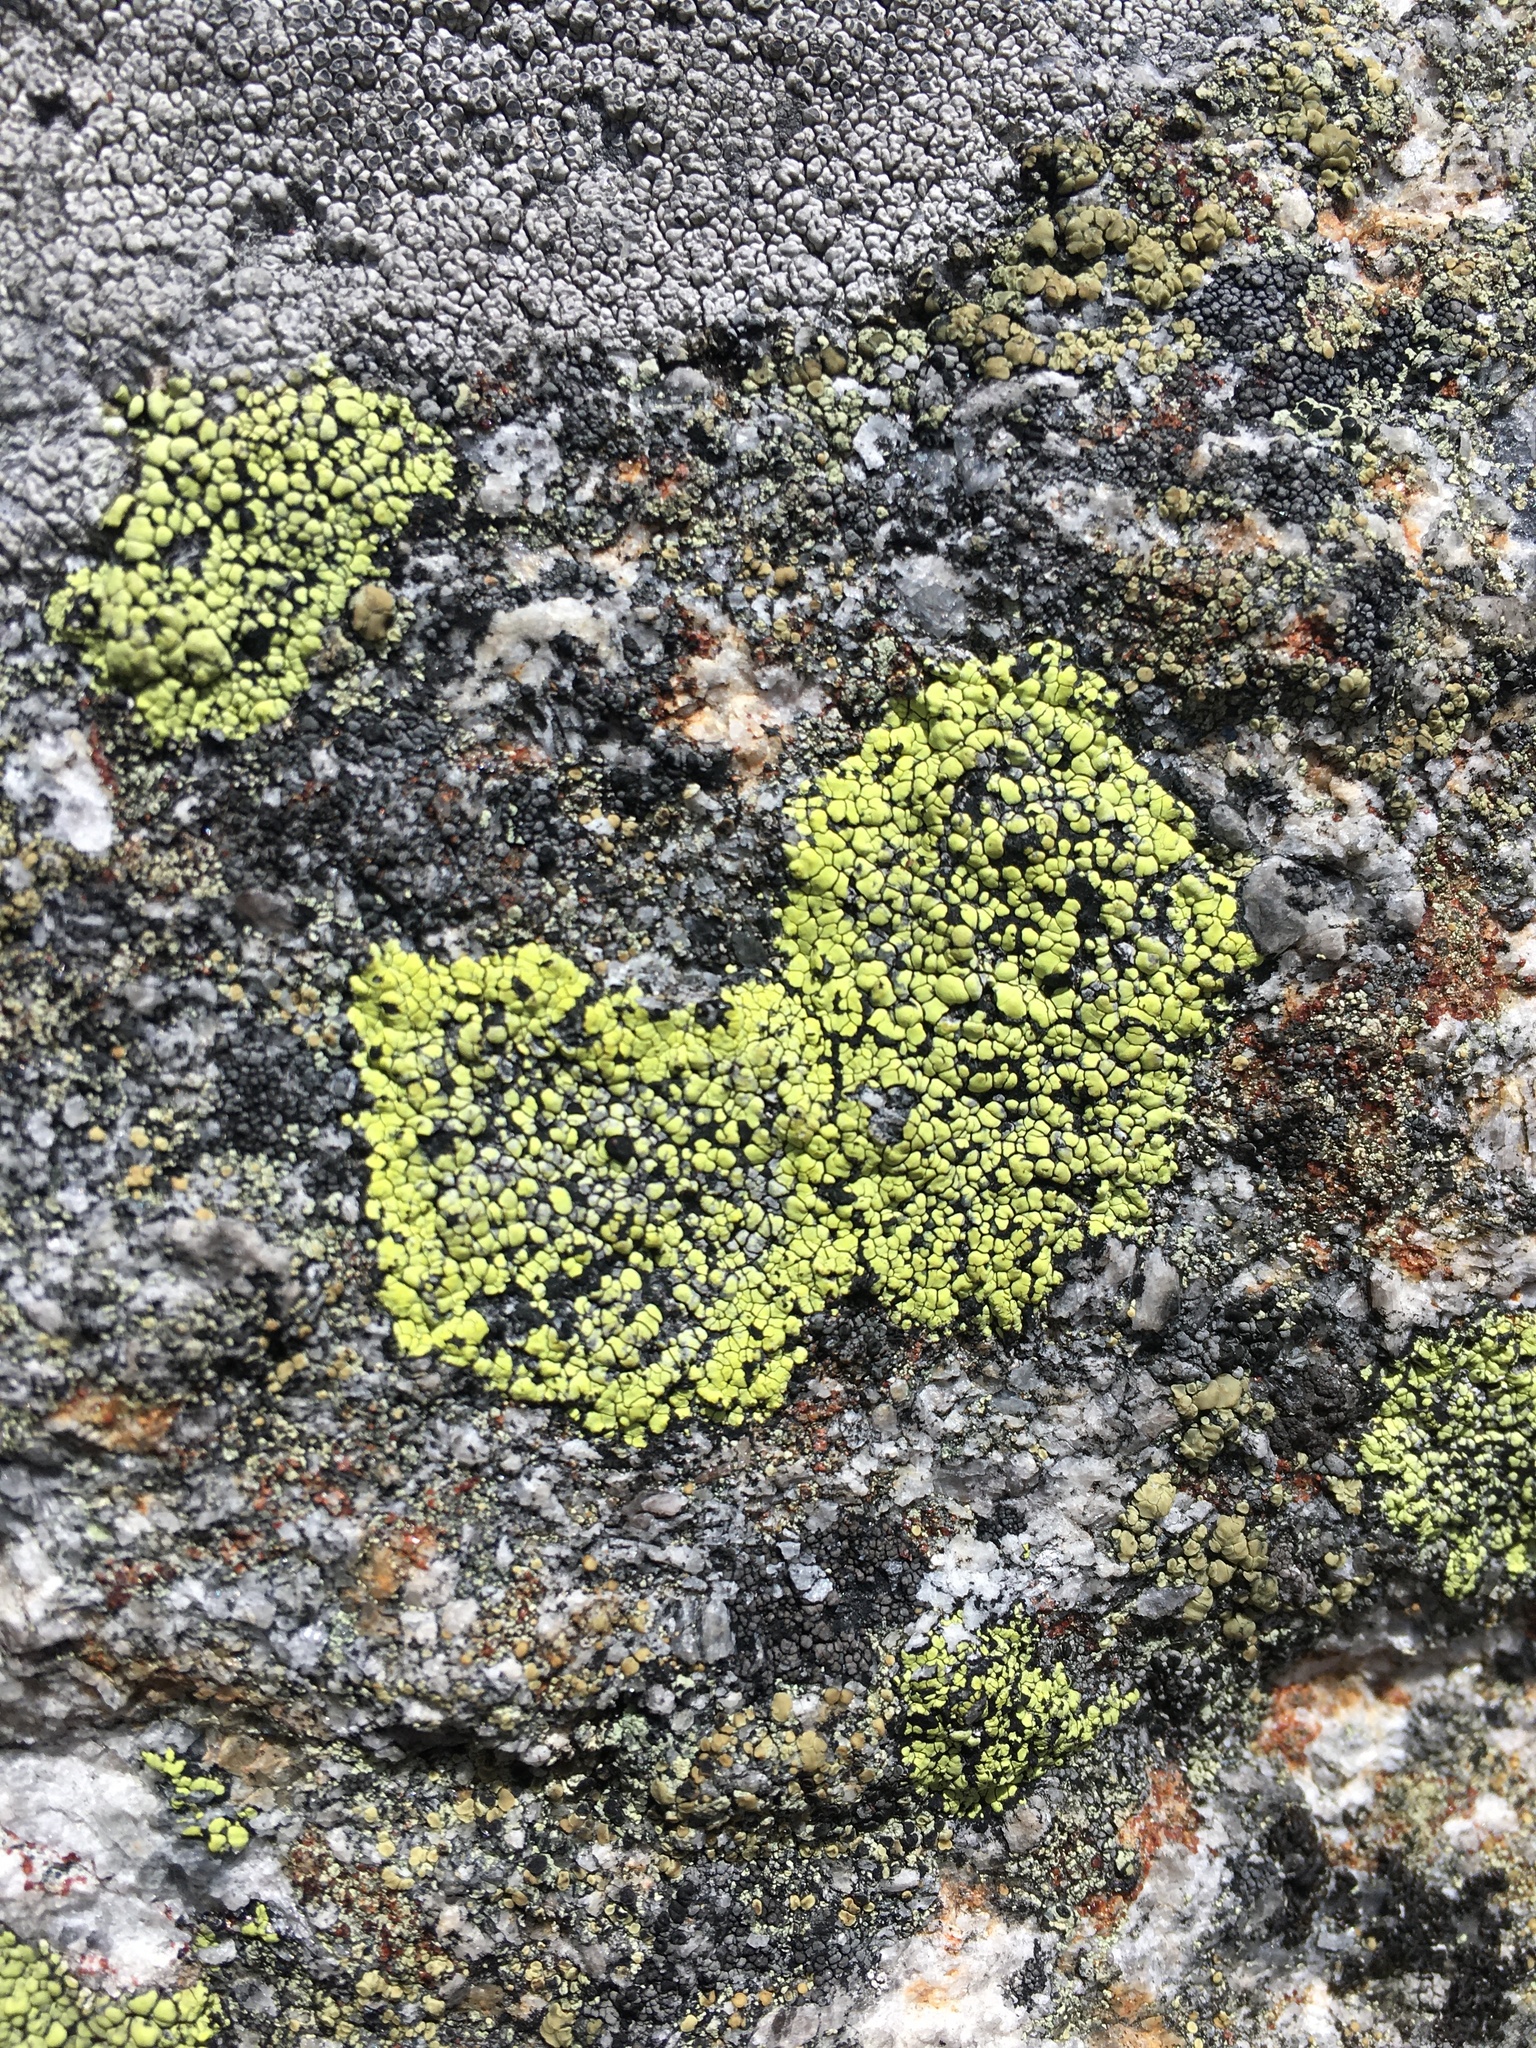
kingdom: Fungi
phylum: Ascomycota
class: Lecanoromycetes
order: Rhizocarpales
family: Rhizocarpaceae
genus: Rhizocarpon
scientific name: Rhizocarpon geographicum
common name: Yellow map lichen
